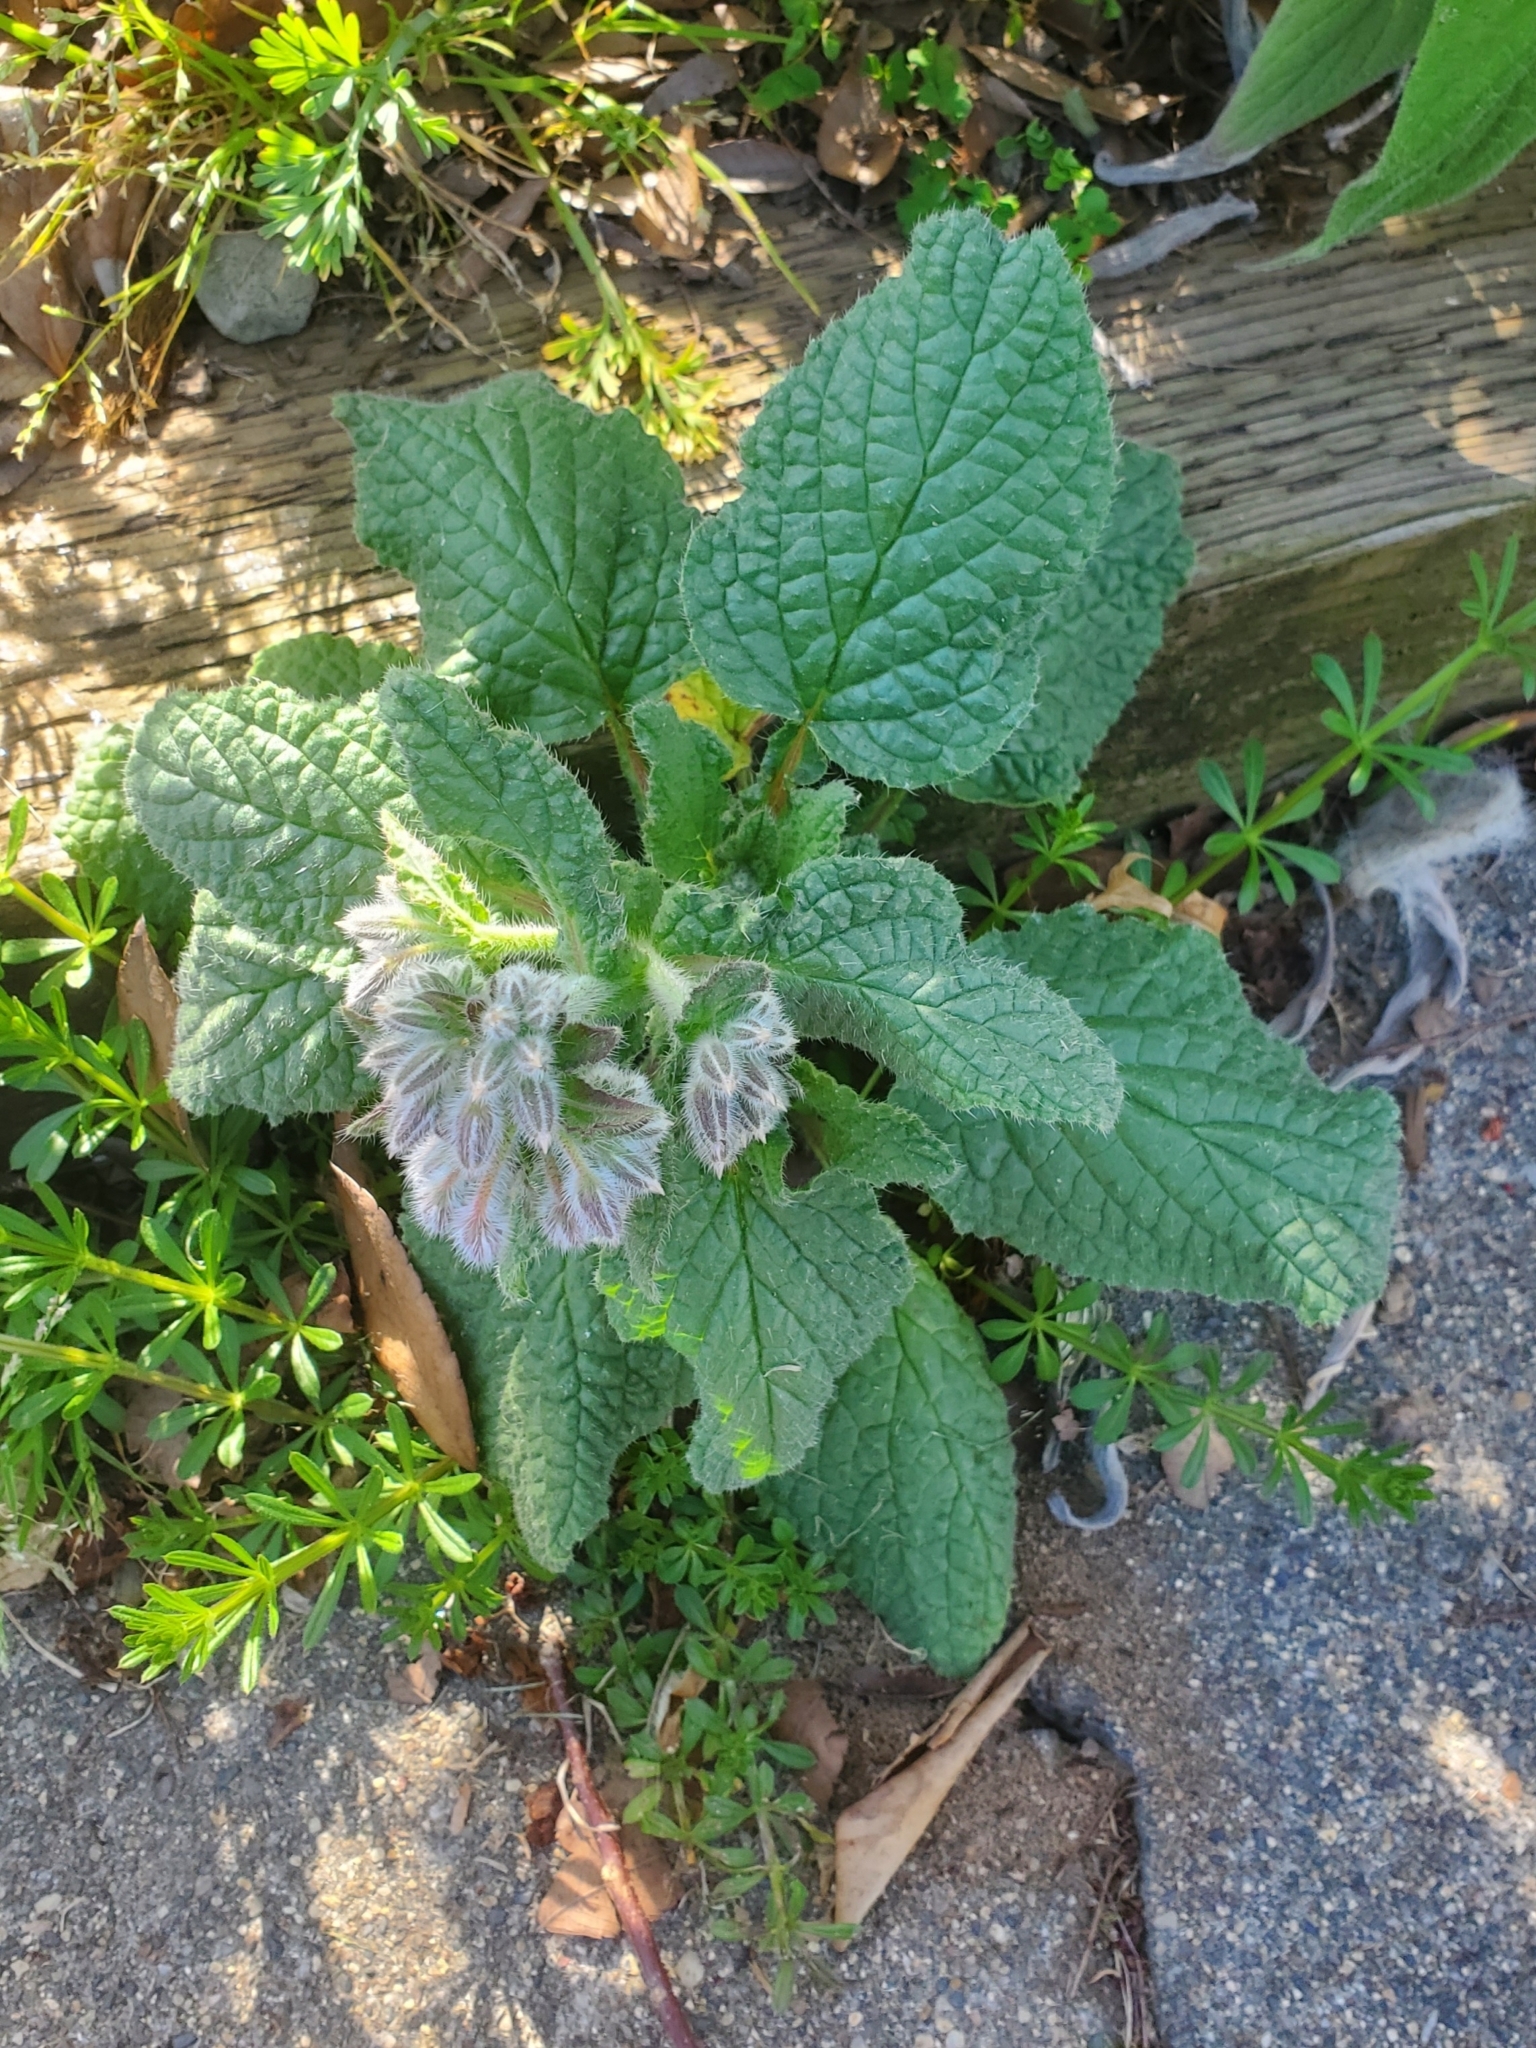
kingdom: Plantae
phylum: Tracheophyta
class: Magnoliopsida
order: Boraginales
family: Boraginaceae
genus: Borago
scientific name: Borago officinalis
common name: Borage
